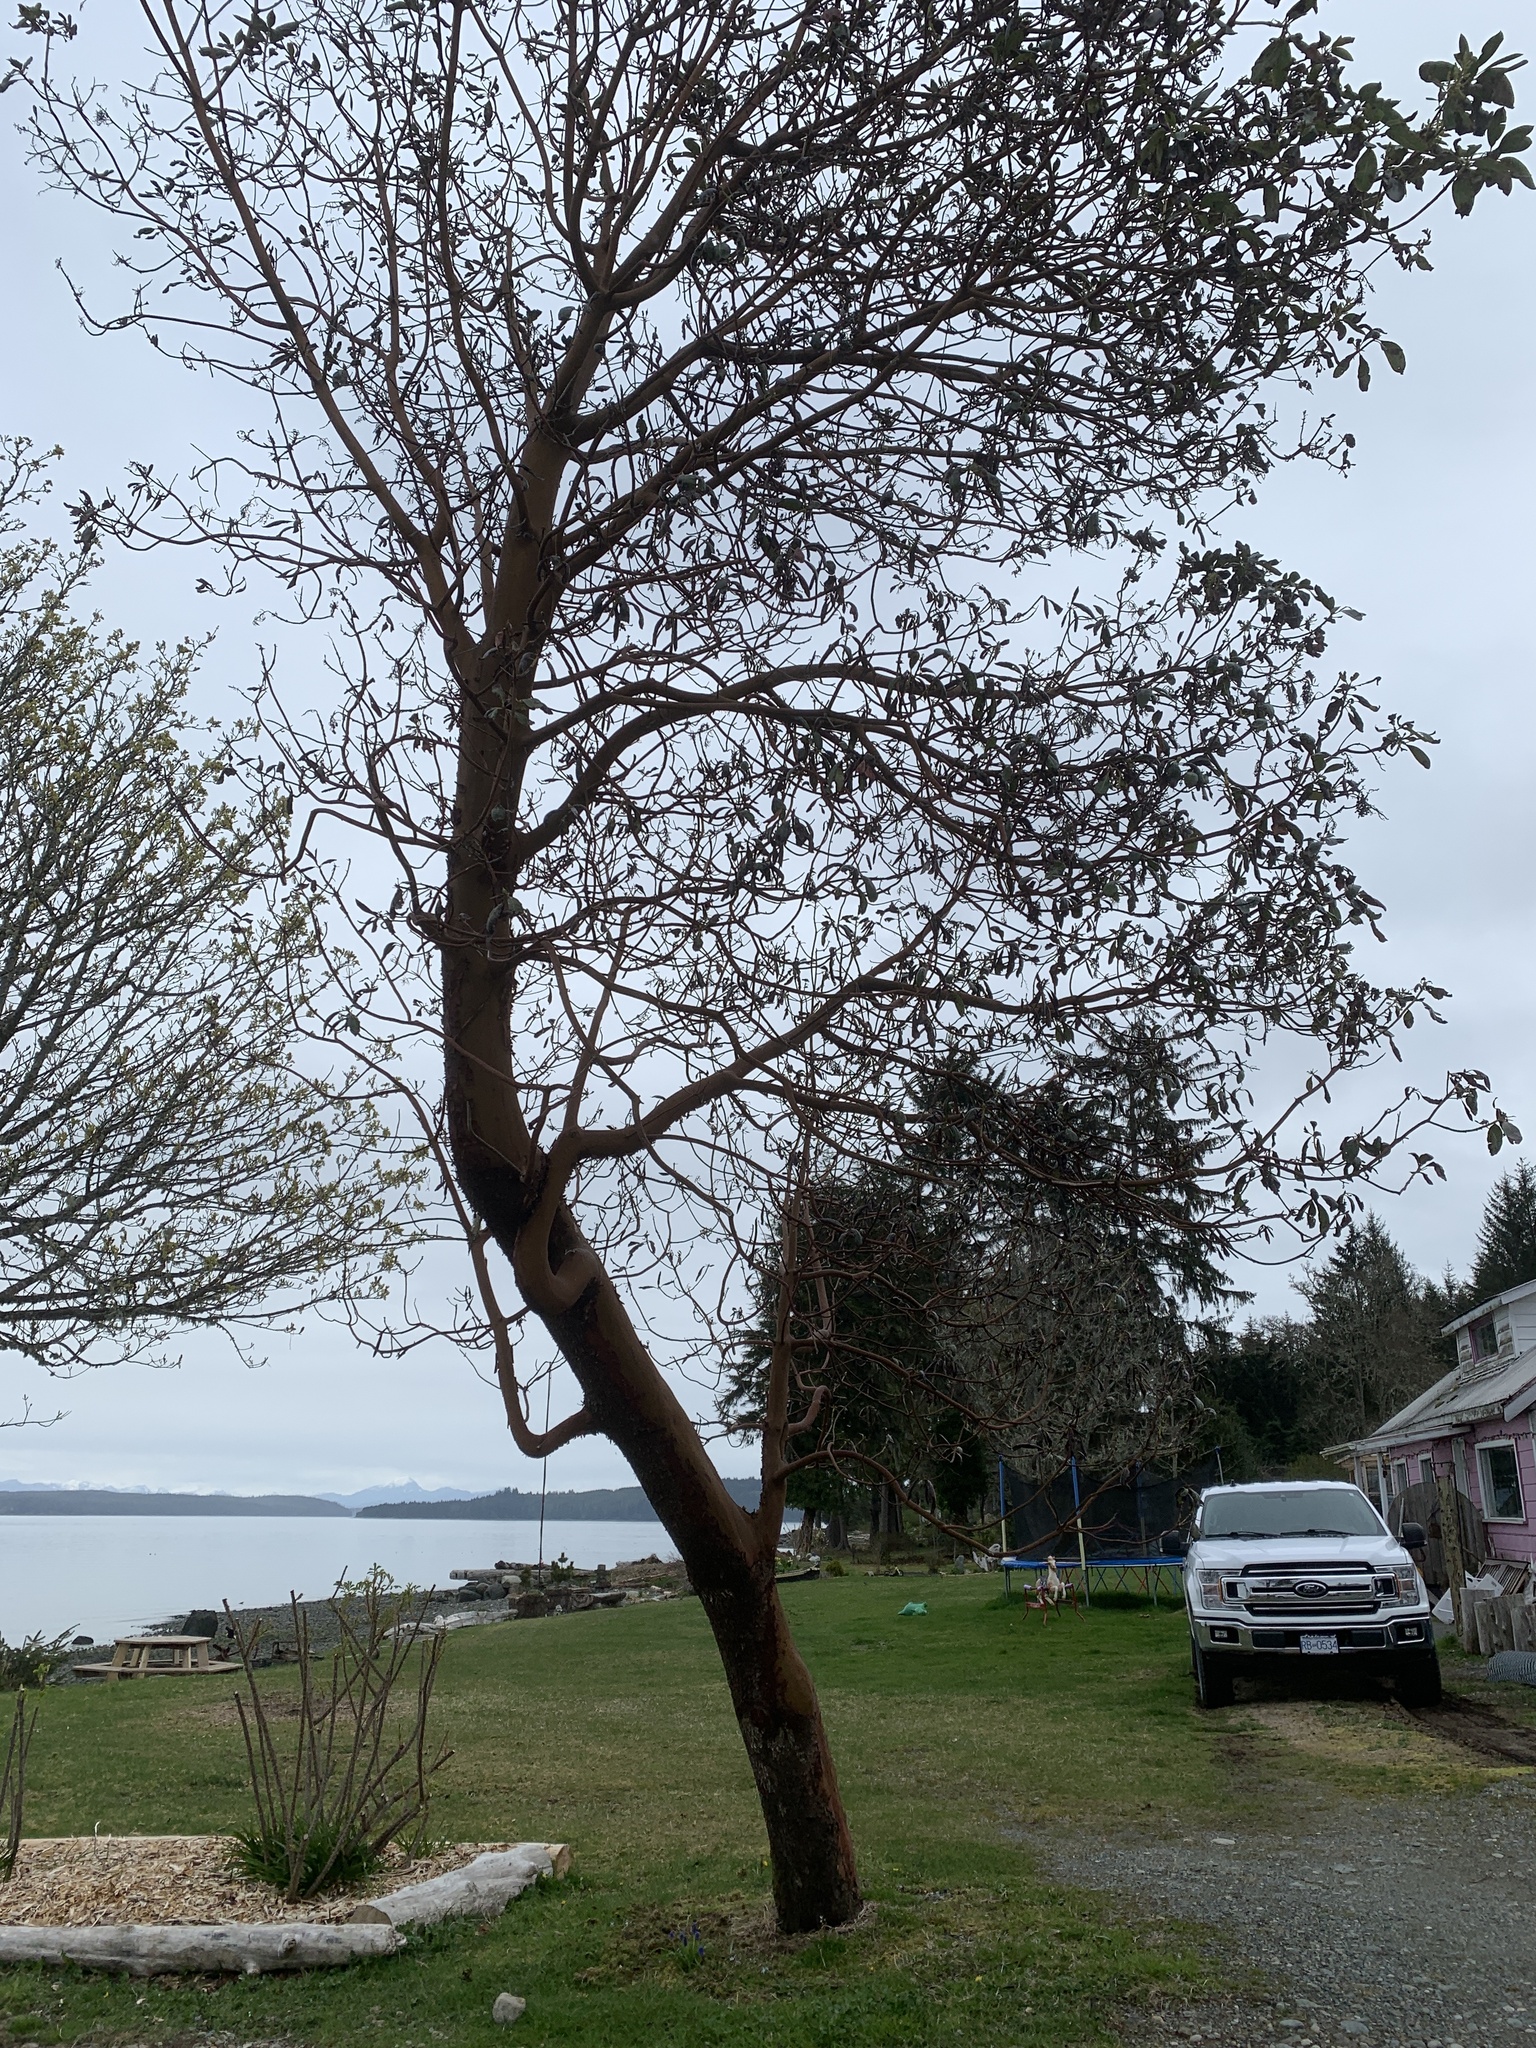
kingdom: Plantae
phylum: Tracheophyta
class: Magnoliopsida
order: Ericales
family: Ericaceae
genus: Arbutus
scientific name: Arbutus menziesii
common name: Pacific madrone
